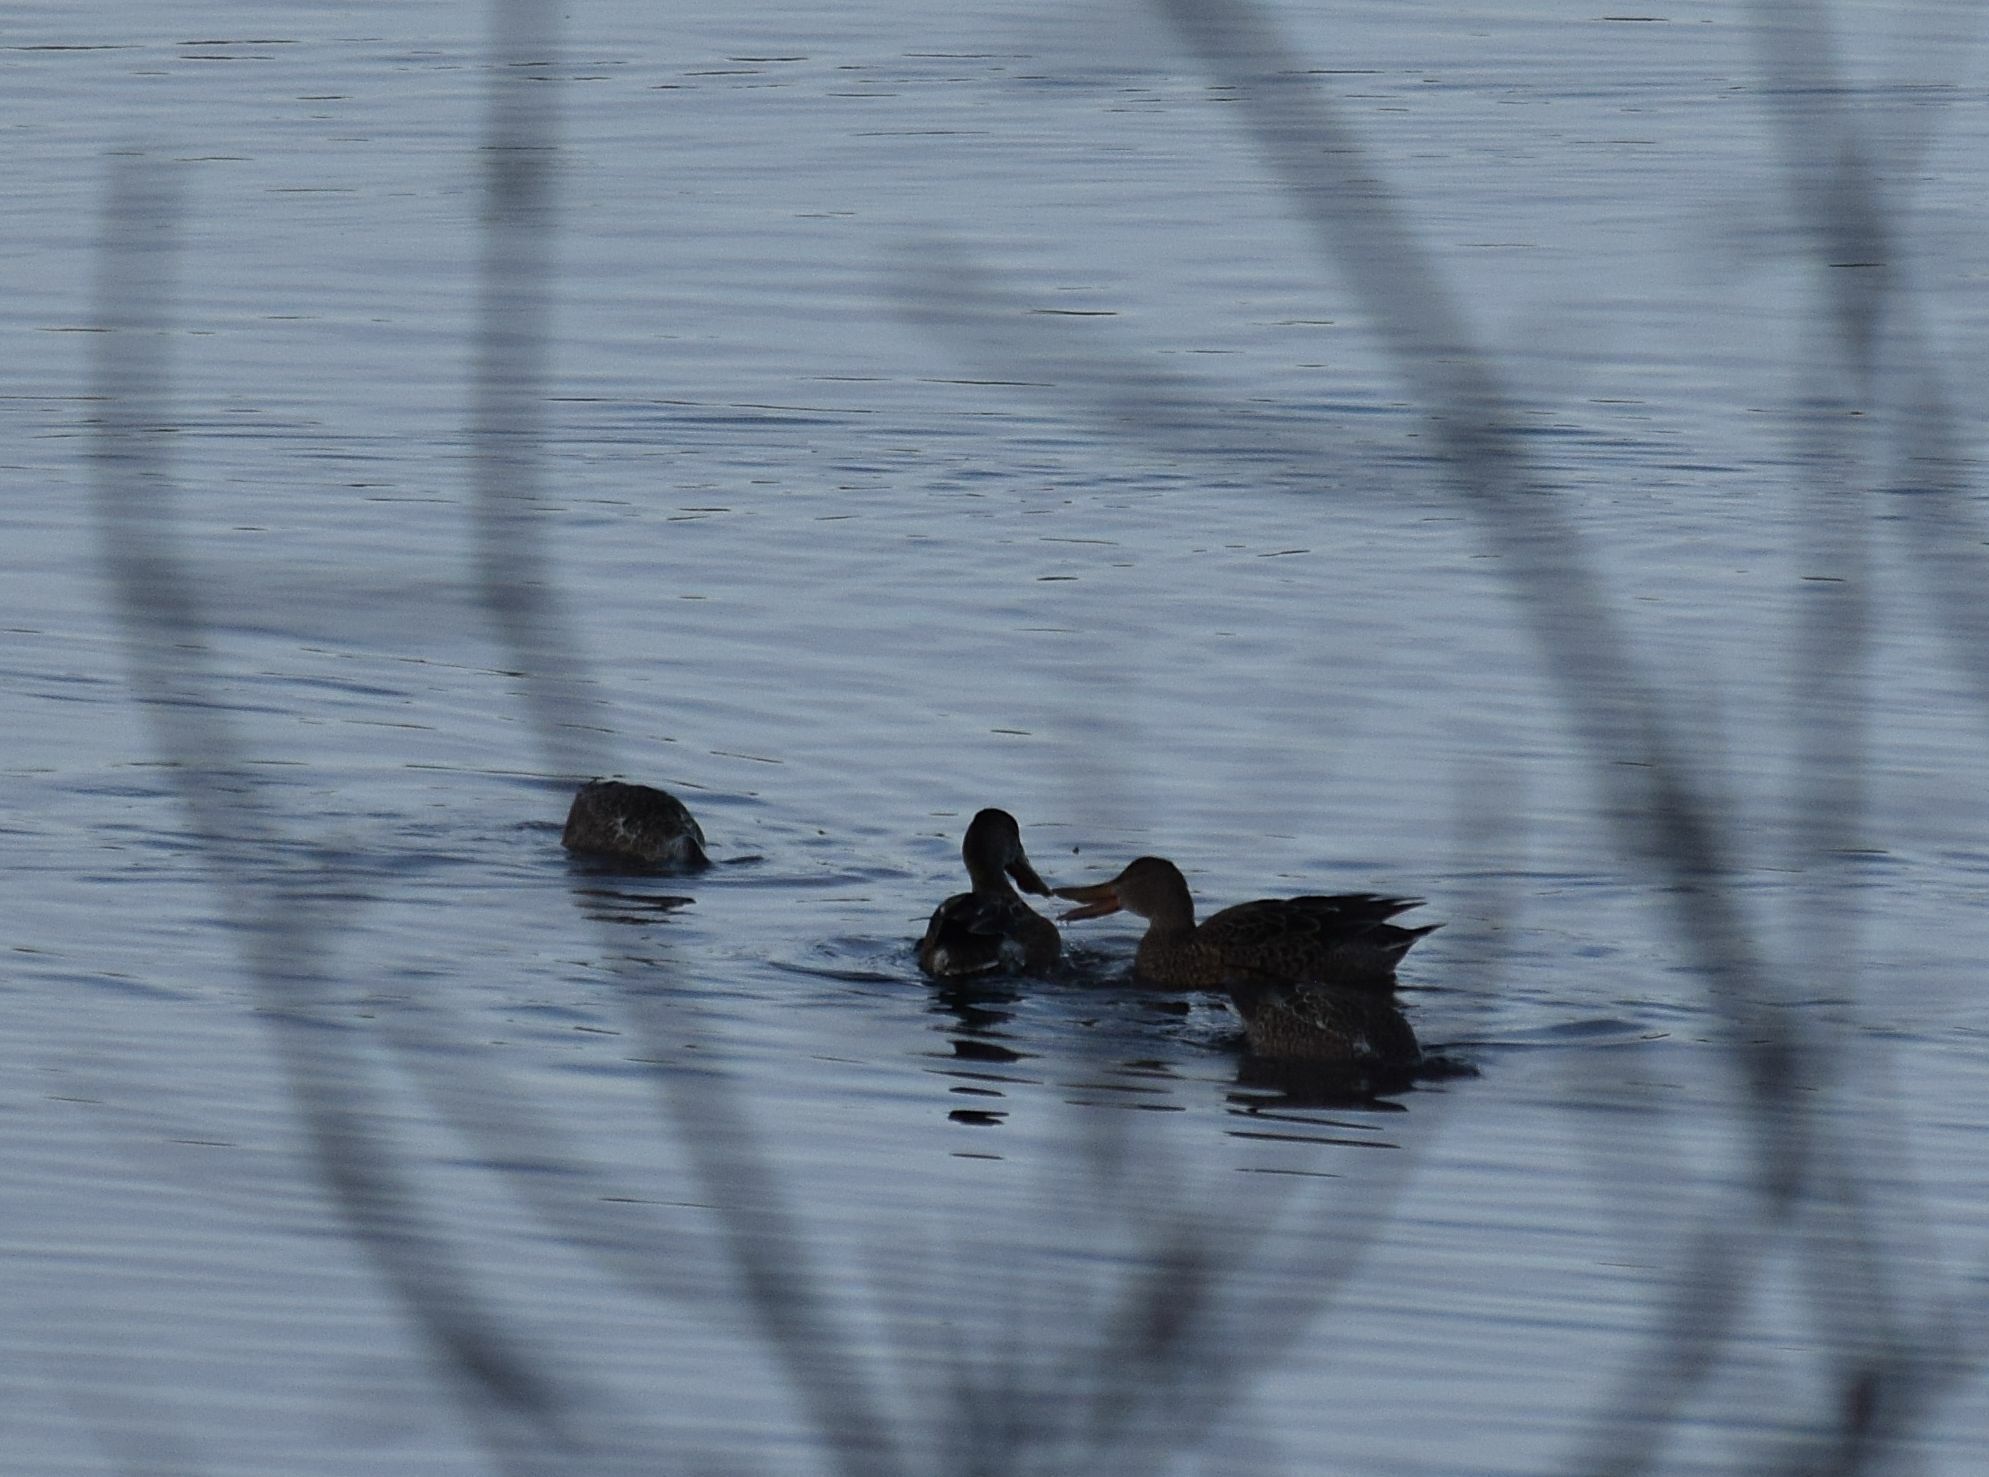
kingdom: Animalia
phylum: Chordata
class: Aves
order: Anseriformes
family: Anatidae
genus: Spatula
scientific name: Spatula clypeata
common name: Northern shoveler
